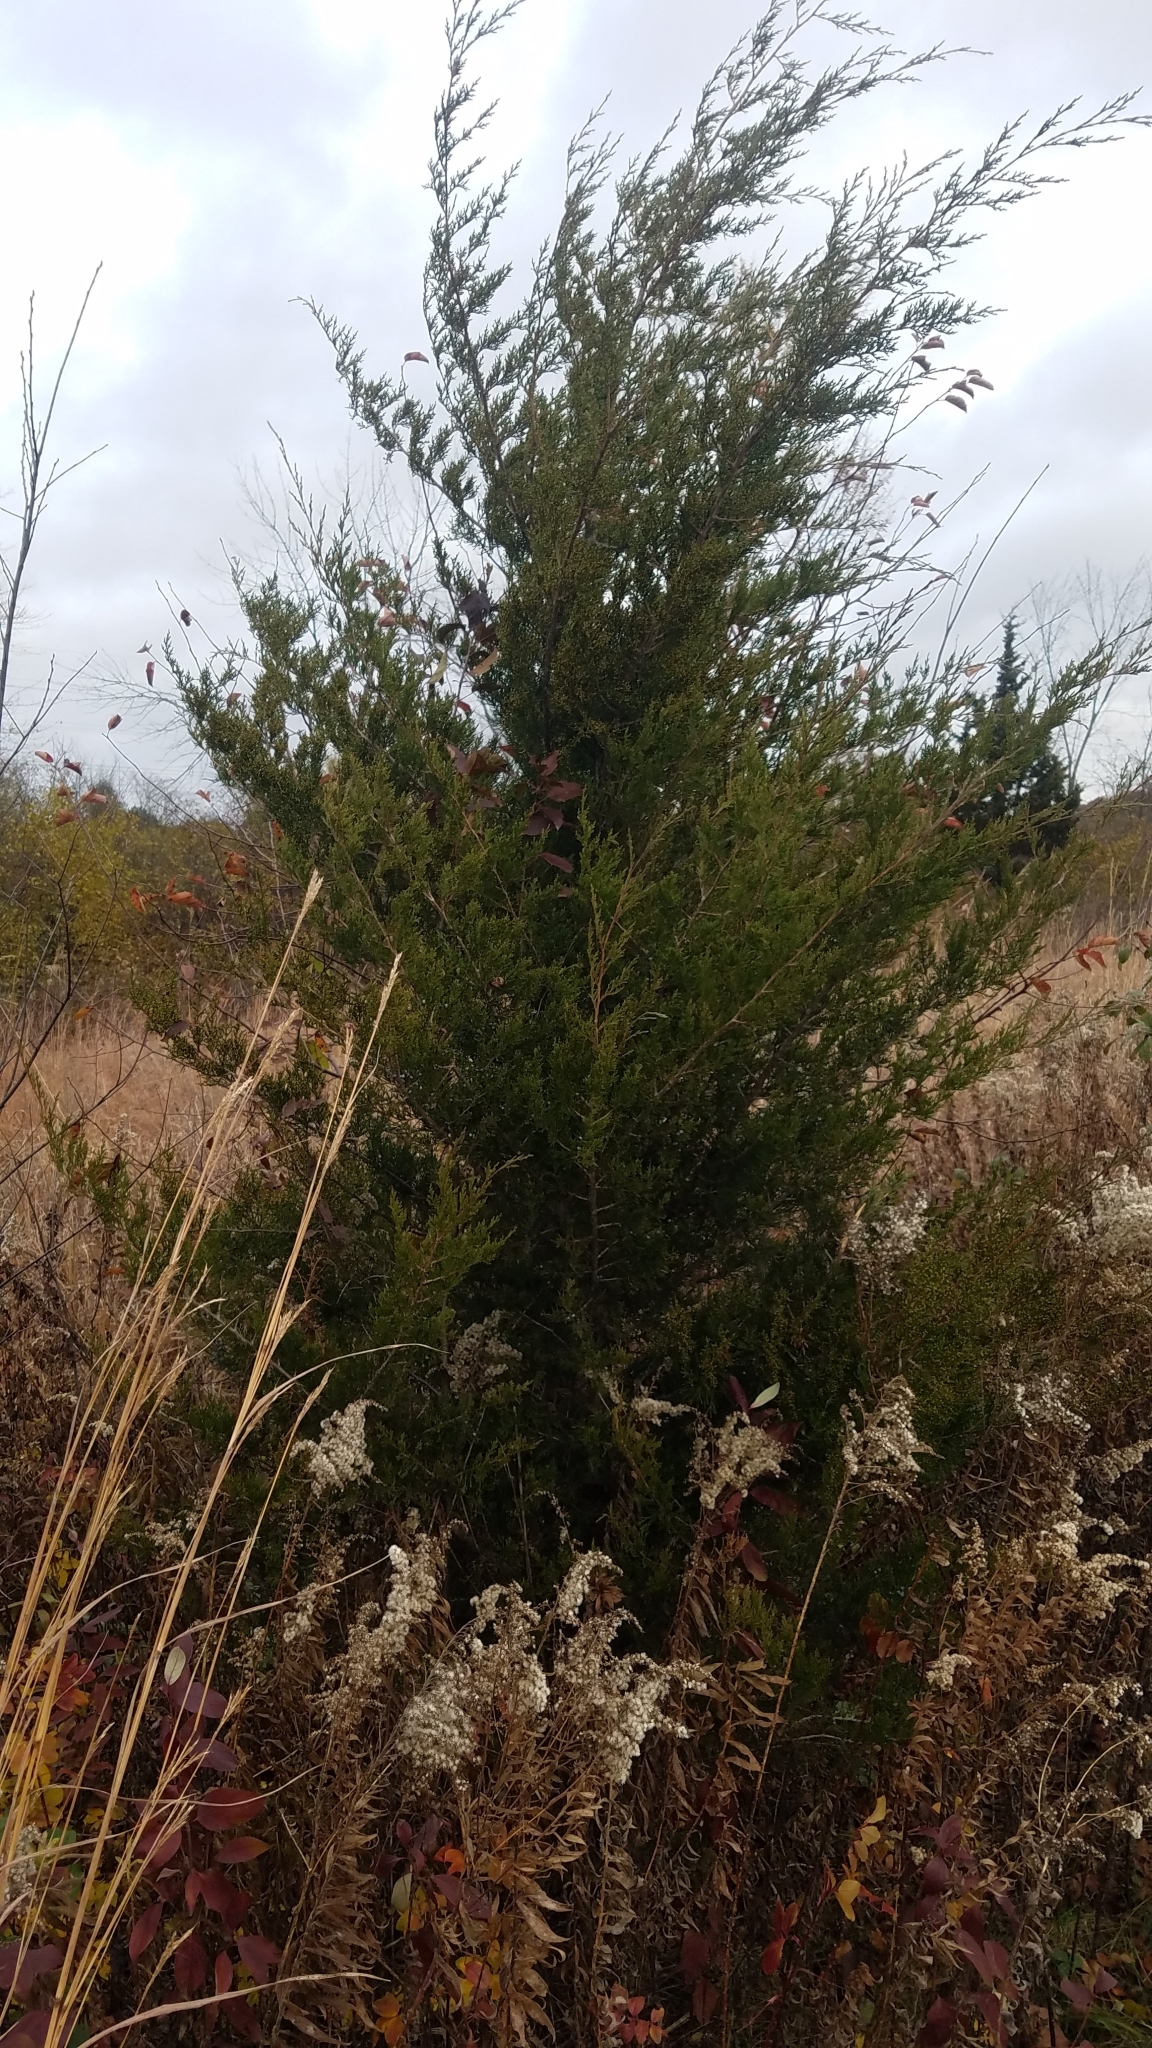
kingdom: Plantae
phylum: Tracheophyta
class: Pinopsida
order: Pinales
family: Cupressaceae
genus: Juniperus
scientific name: Juniperus virginiana
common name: Red juniper
